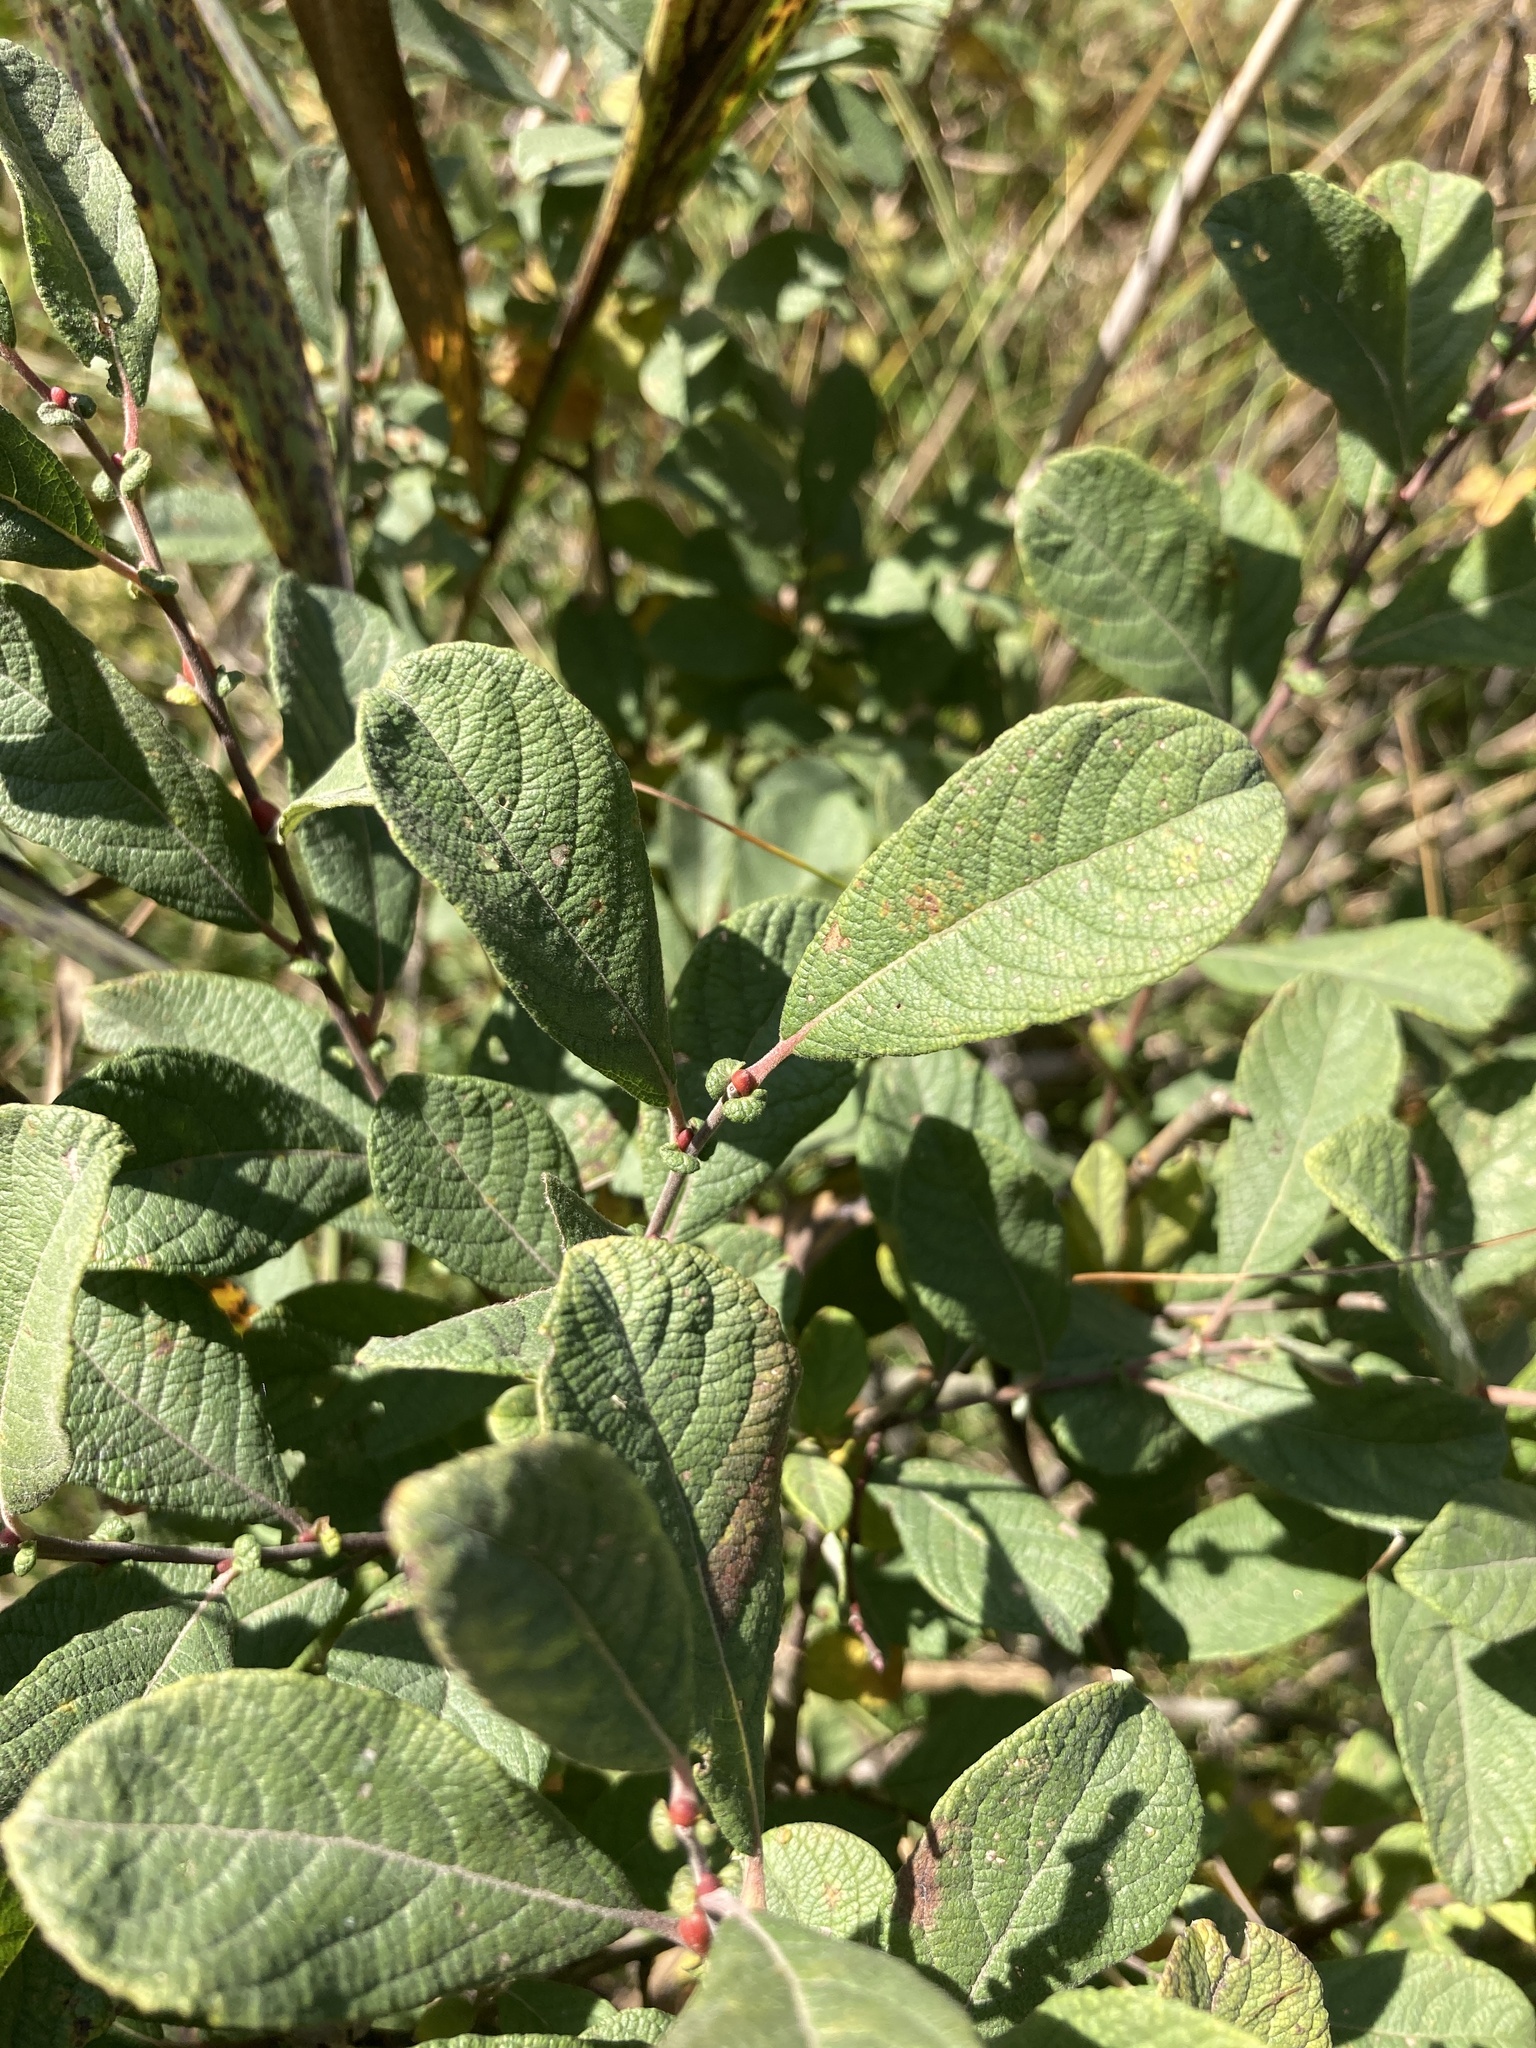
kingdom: Plantae
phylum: Tracheophyta
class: Magnoliopsida
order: Malpighiales
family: Salicaceae
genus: Salix
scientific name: Salix aurita
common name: Eared willow
